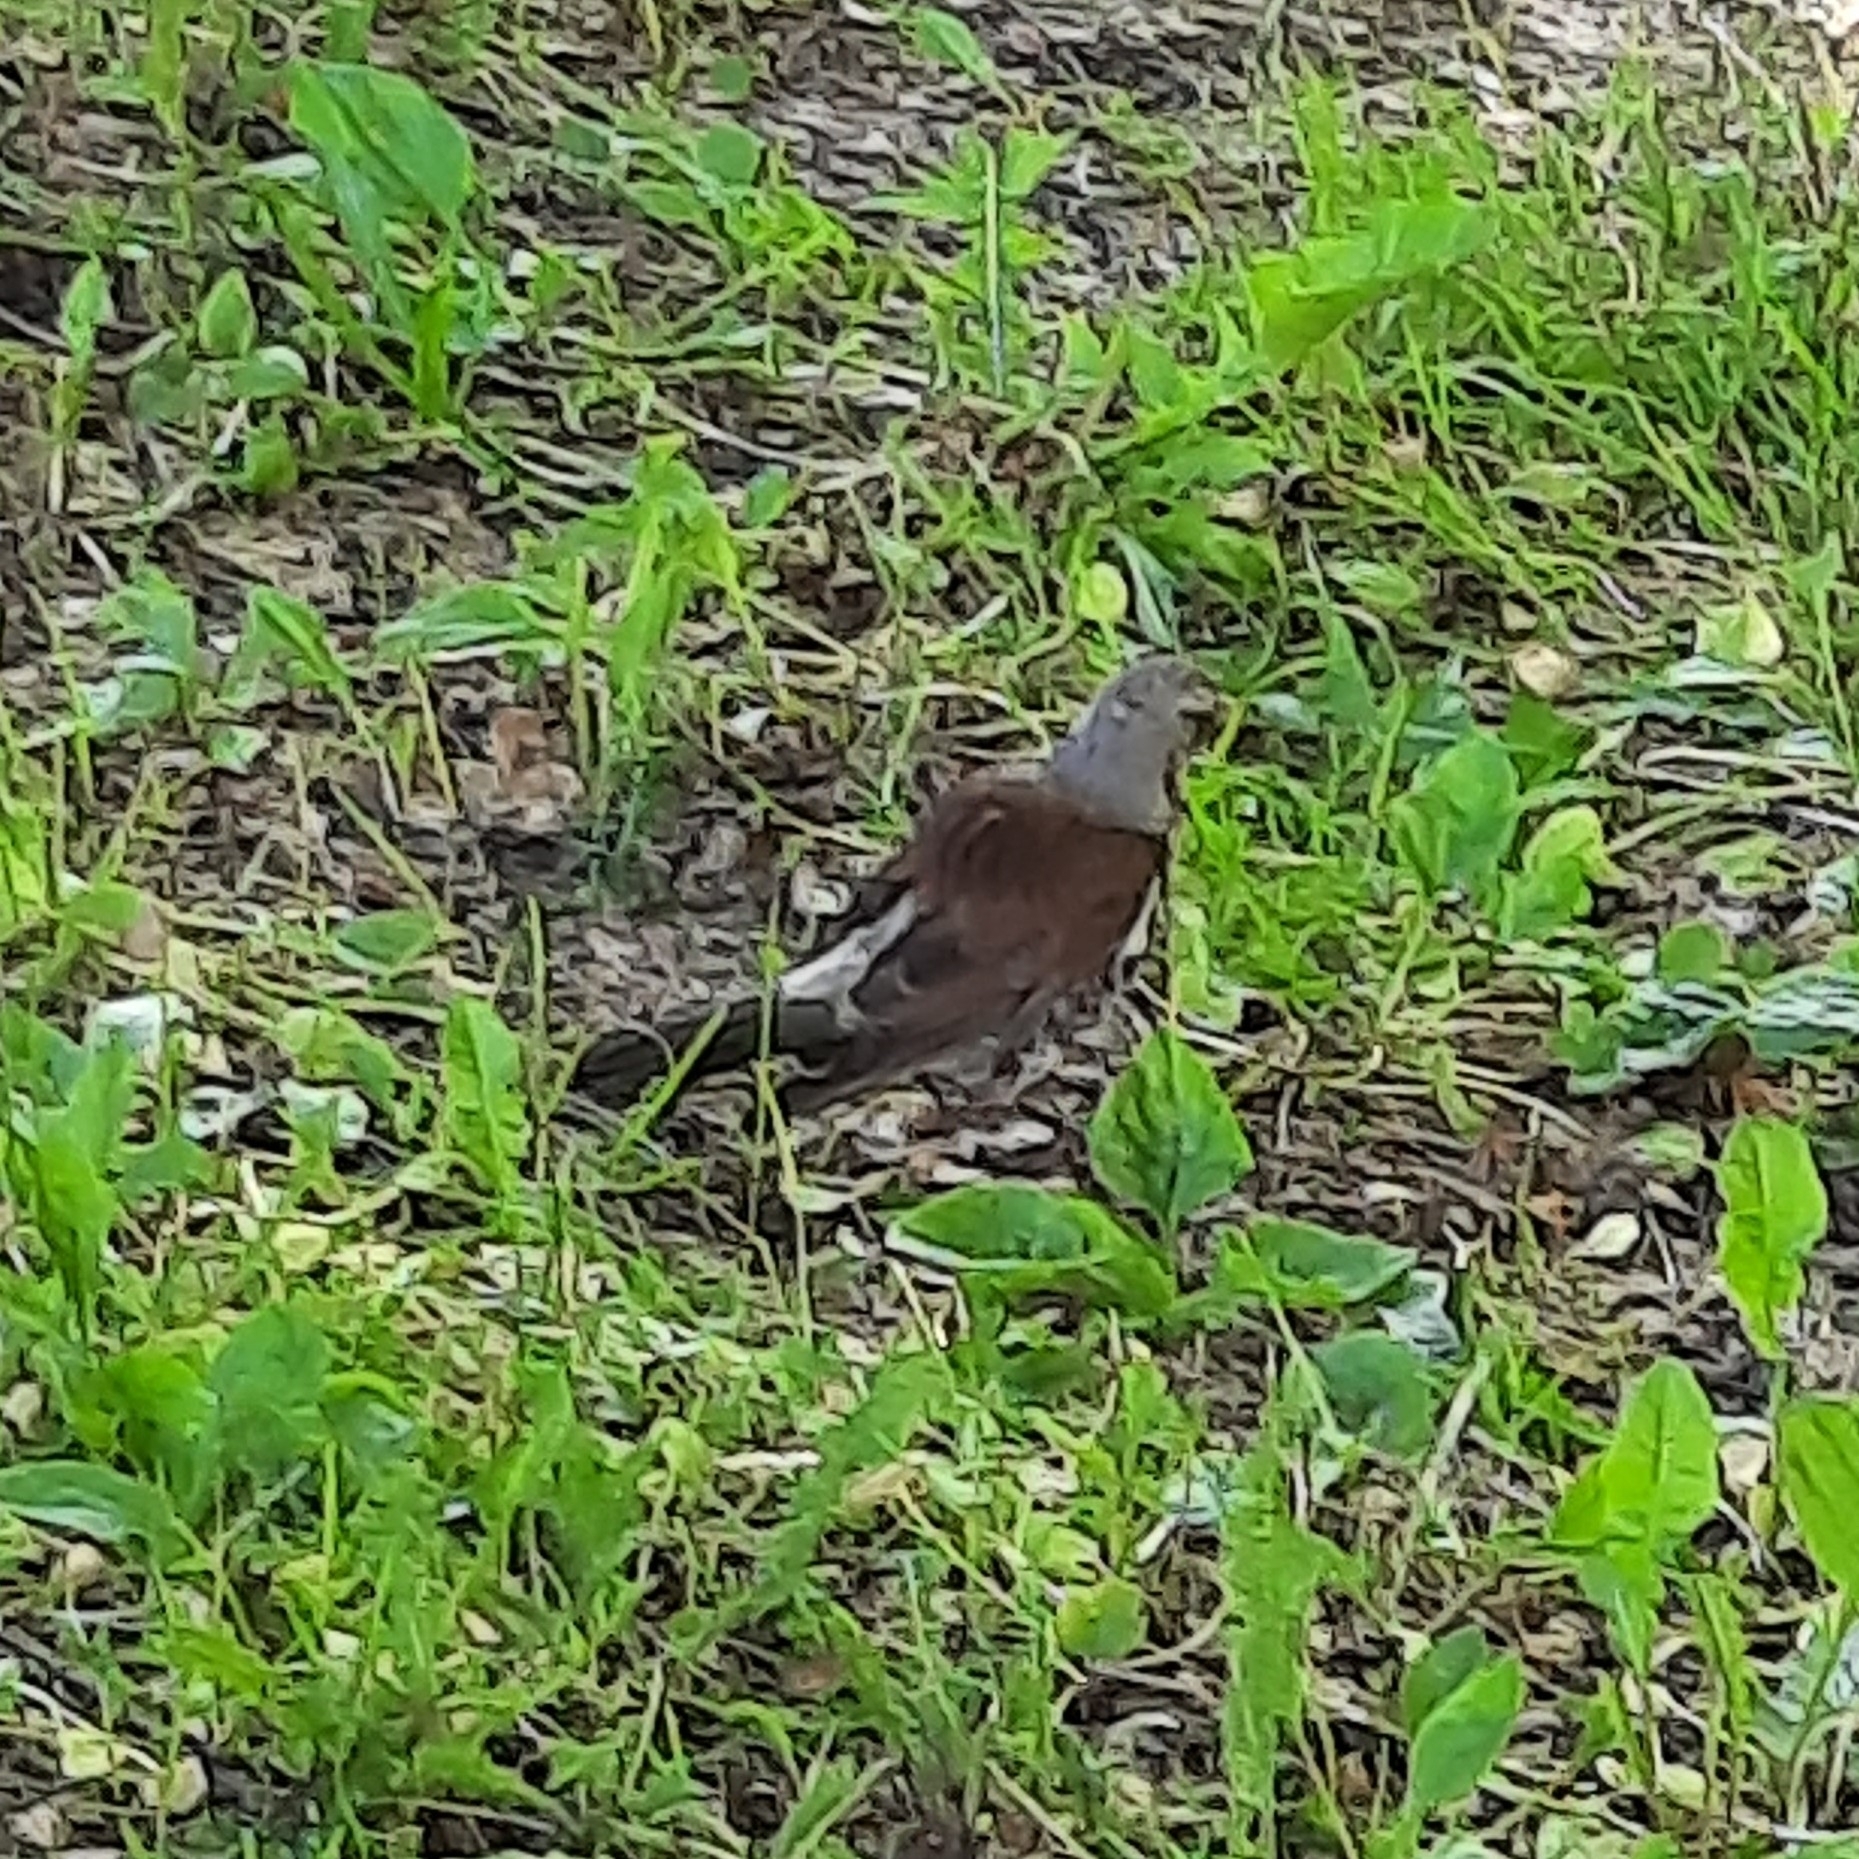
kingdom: Animalia
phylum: Chordata
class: Aves
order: Passeriformes
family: Turdidae
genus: Turdus
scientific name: Turdus pilaris
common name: Fieldfare
